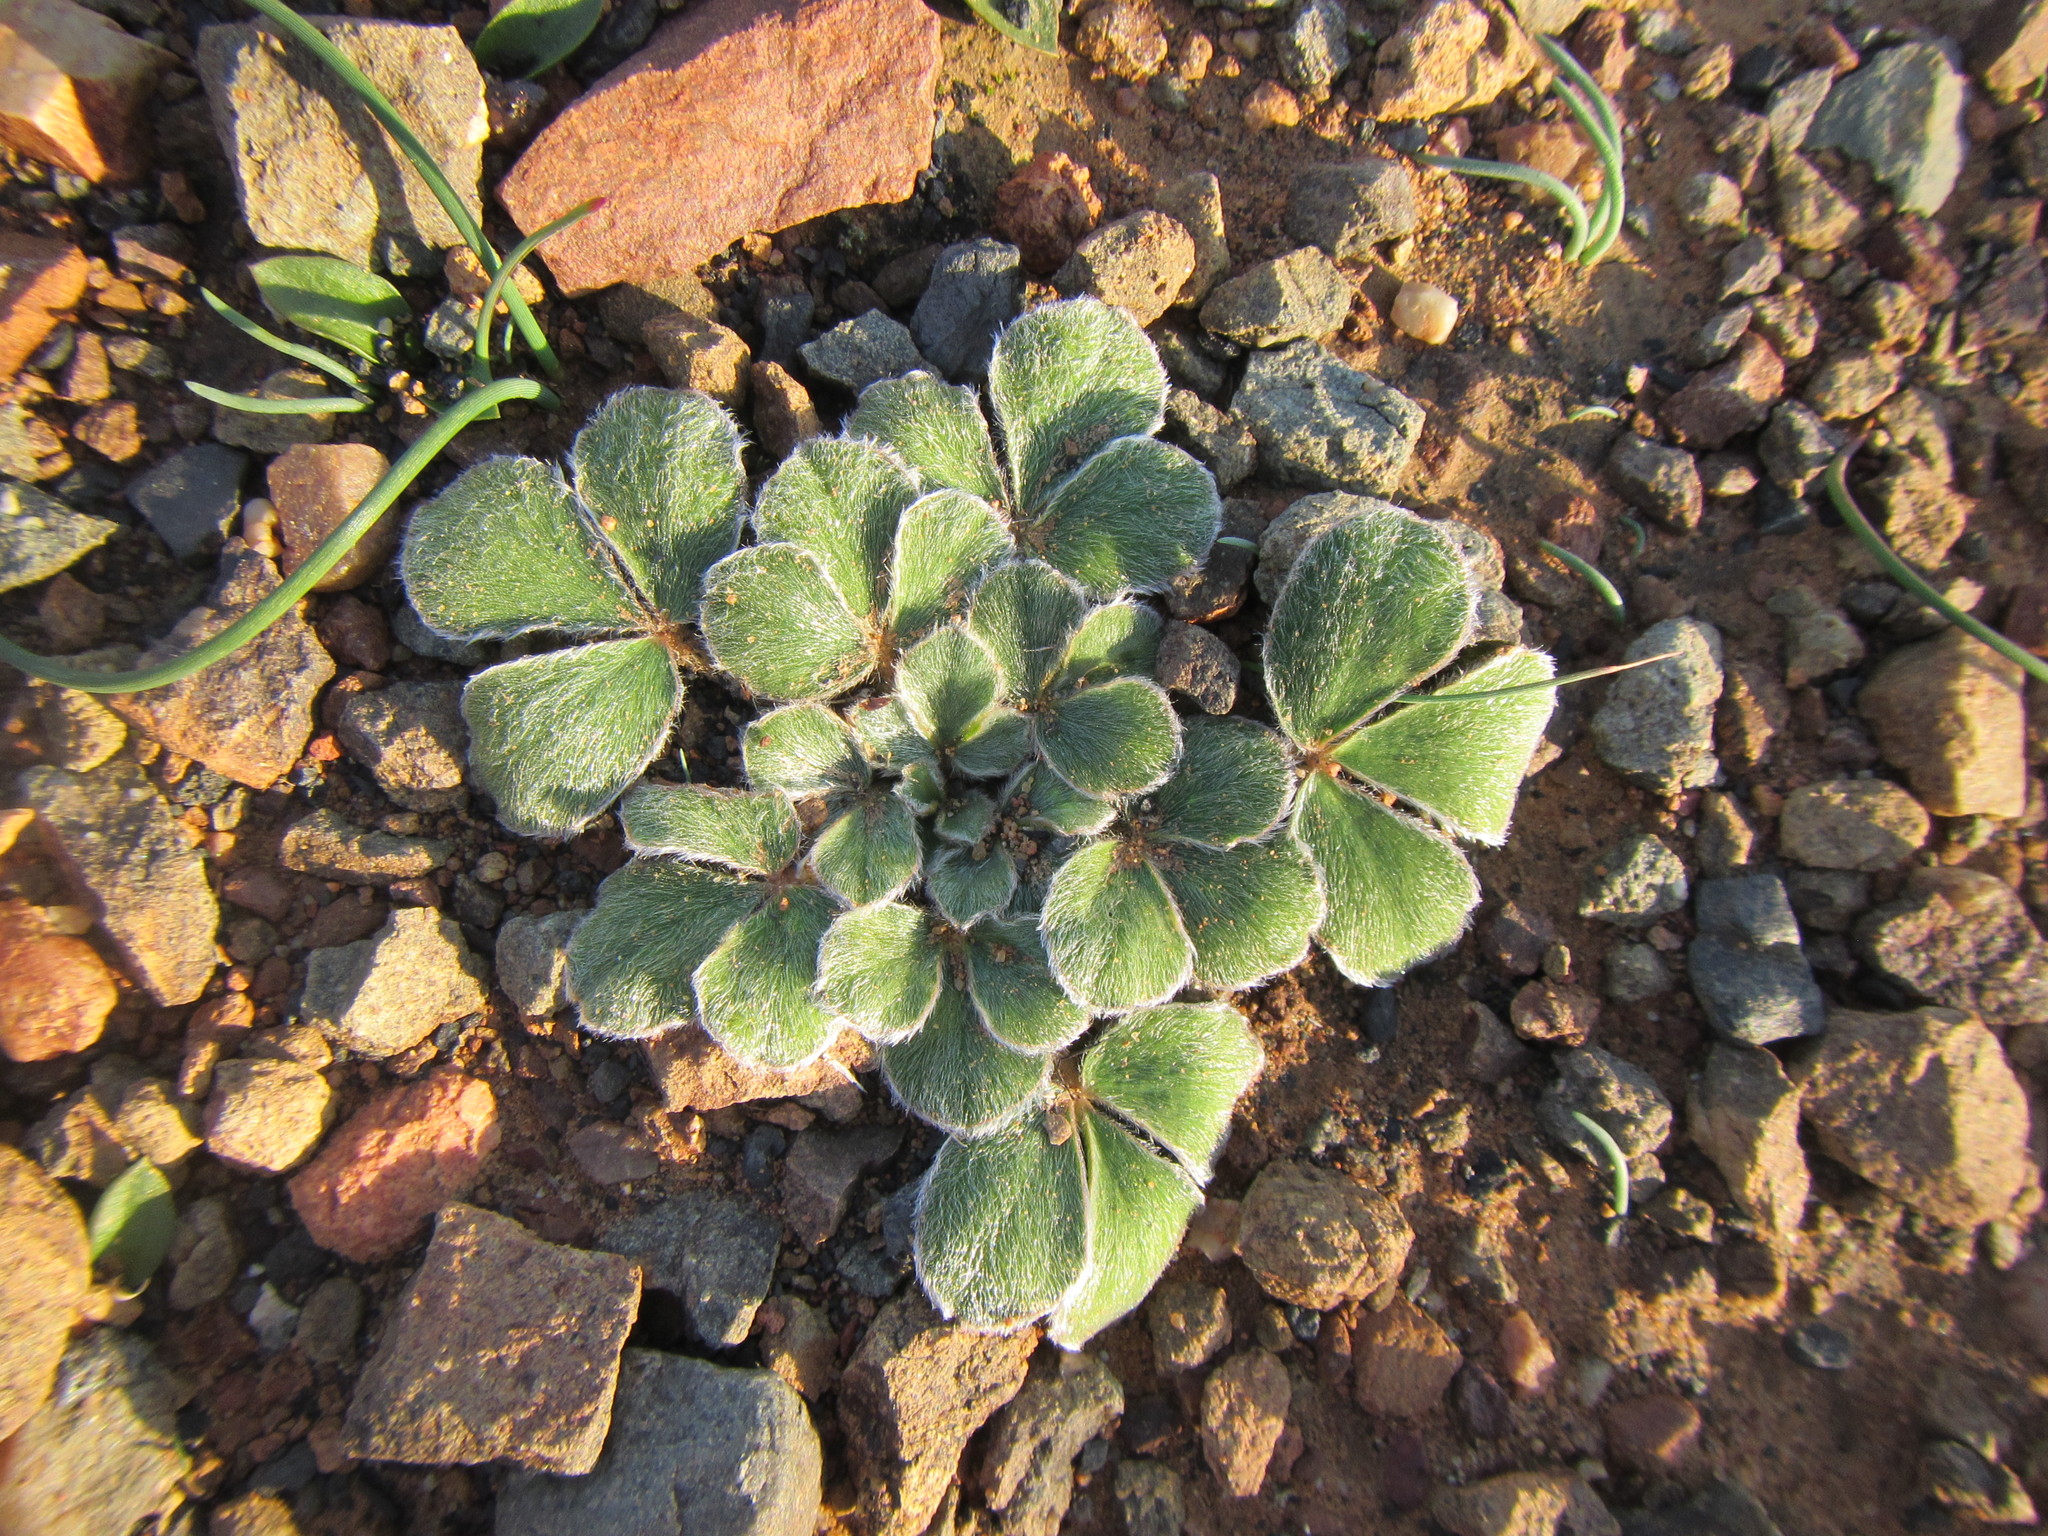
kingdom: Plantae
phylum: Tracheophyta
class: Magnoliopsida
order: Oxalidales
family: Oxalidaceae
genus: Oxalis
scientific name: Oxalis melanosticta
